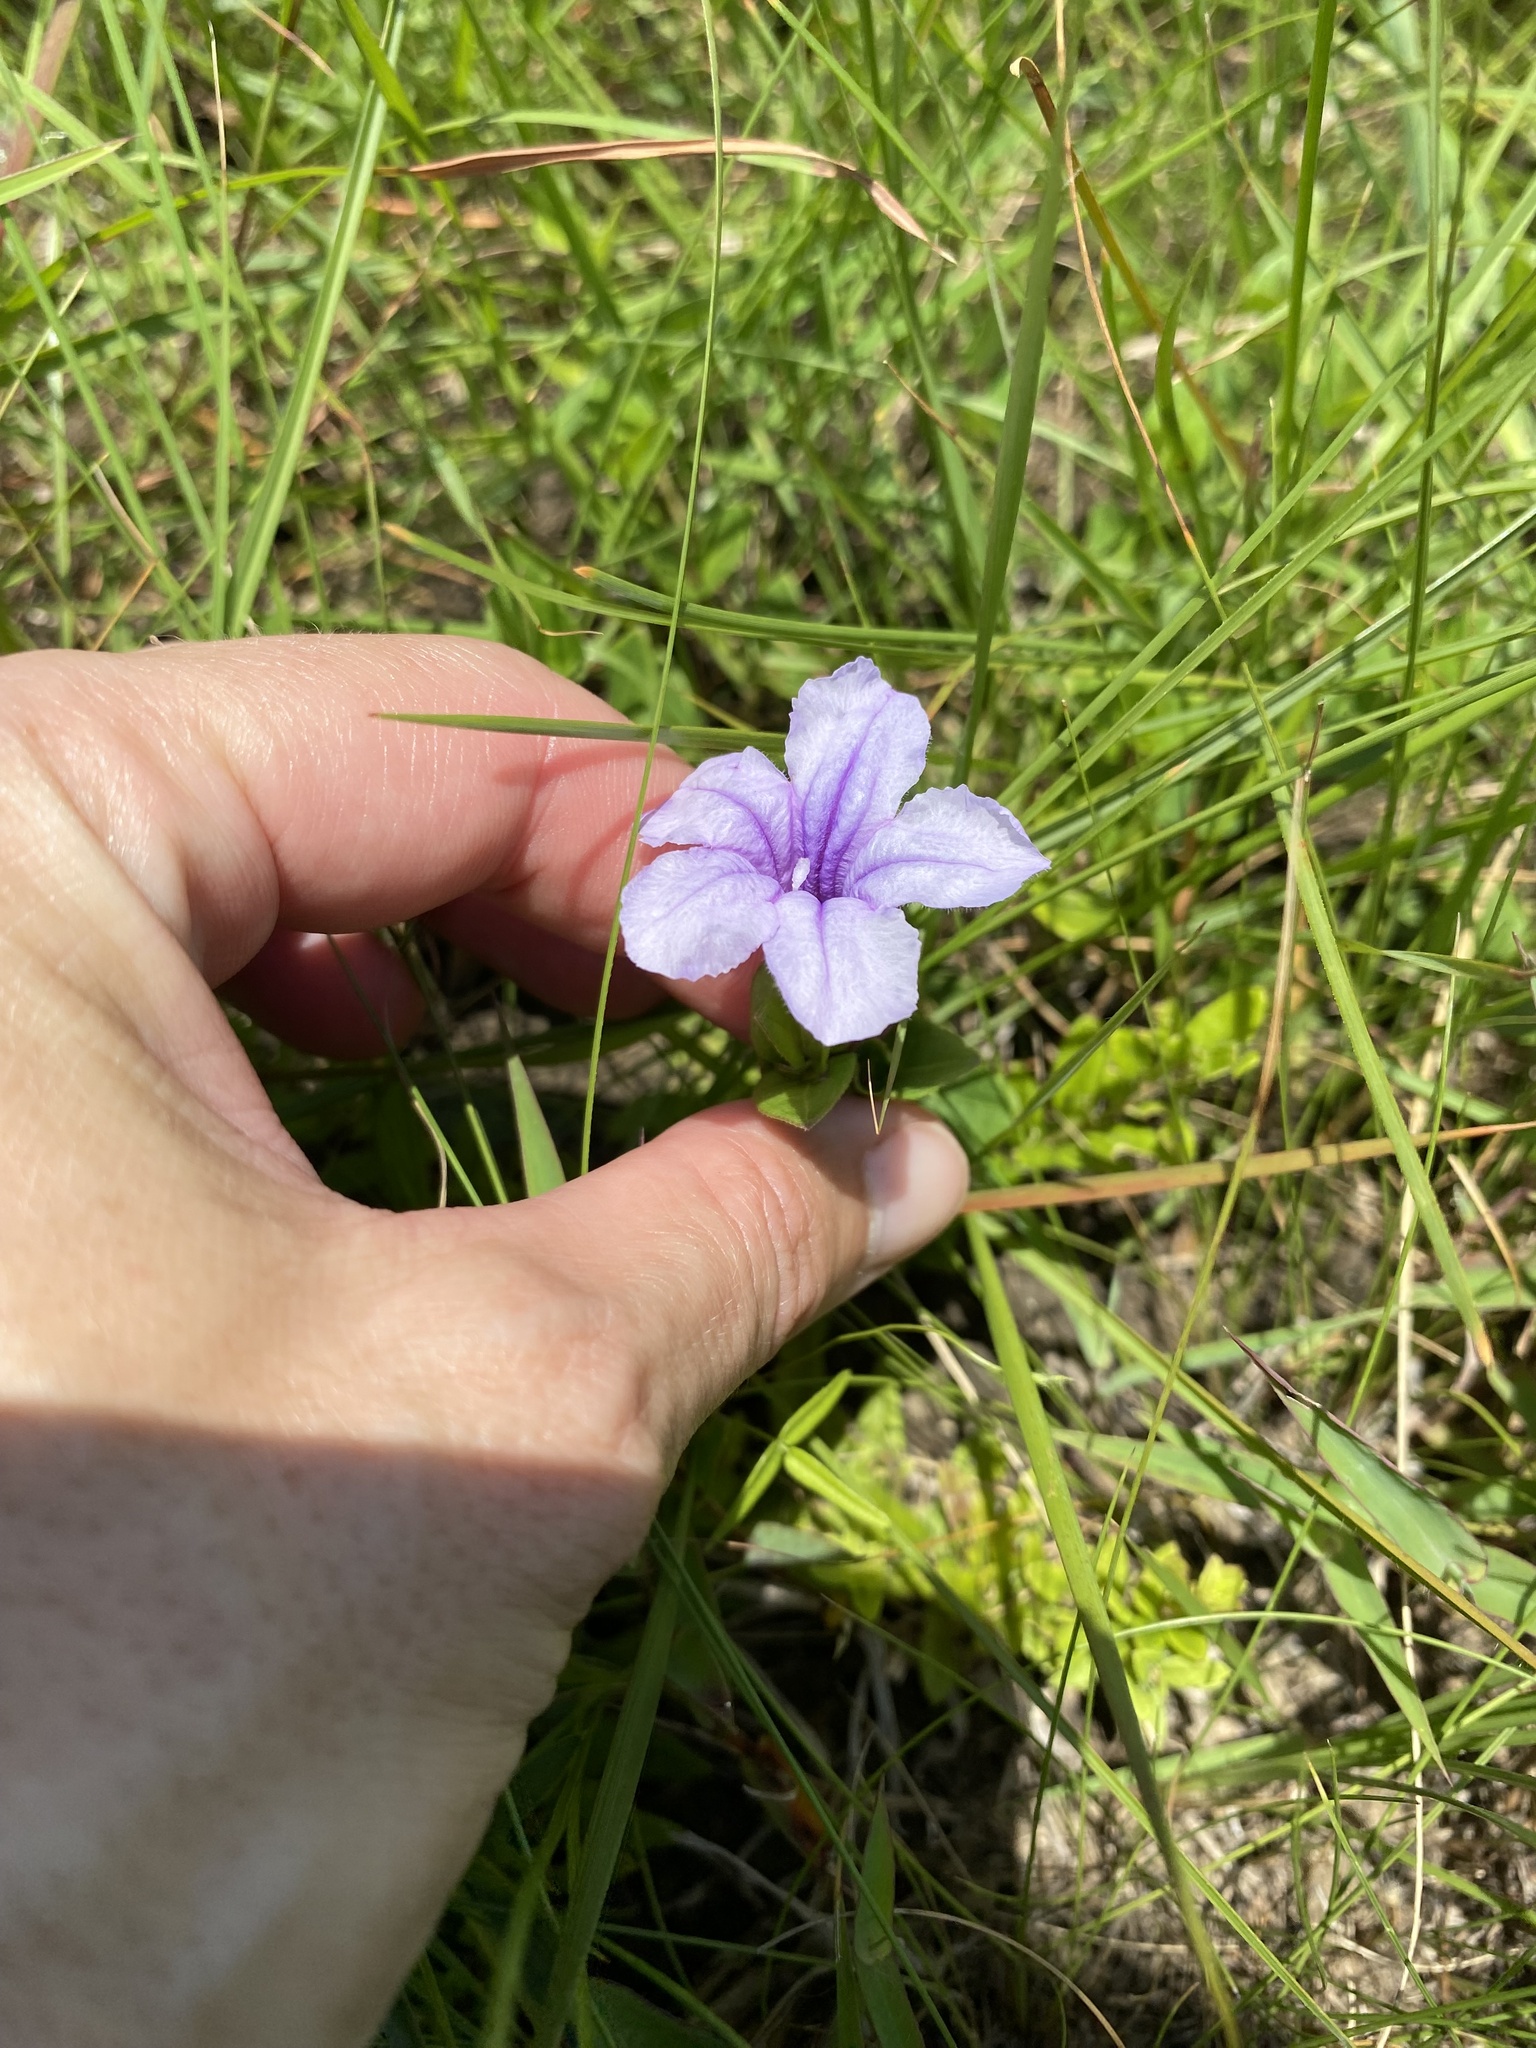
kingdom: Plantae
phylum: Tracheophyta
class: Magnoliopsida
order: Lamiales
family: Acanthaceae
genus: Ruellia
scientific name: Ruellia cordata
